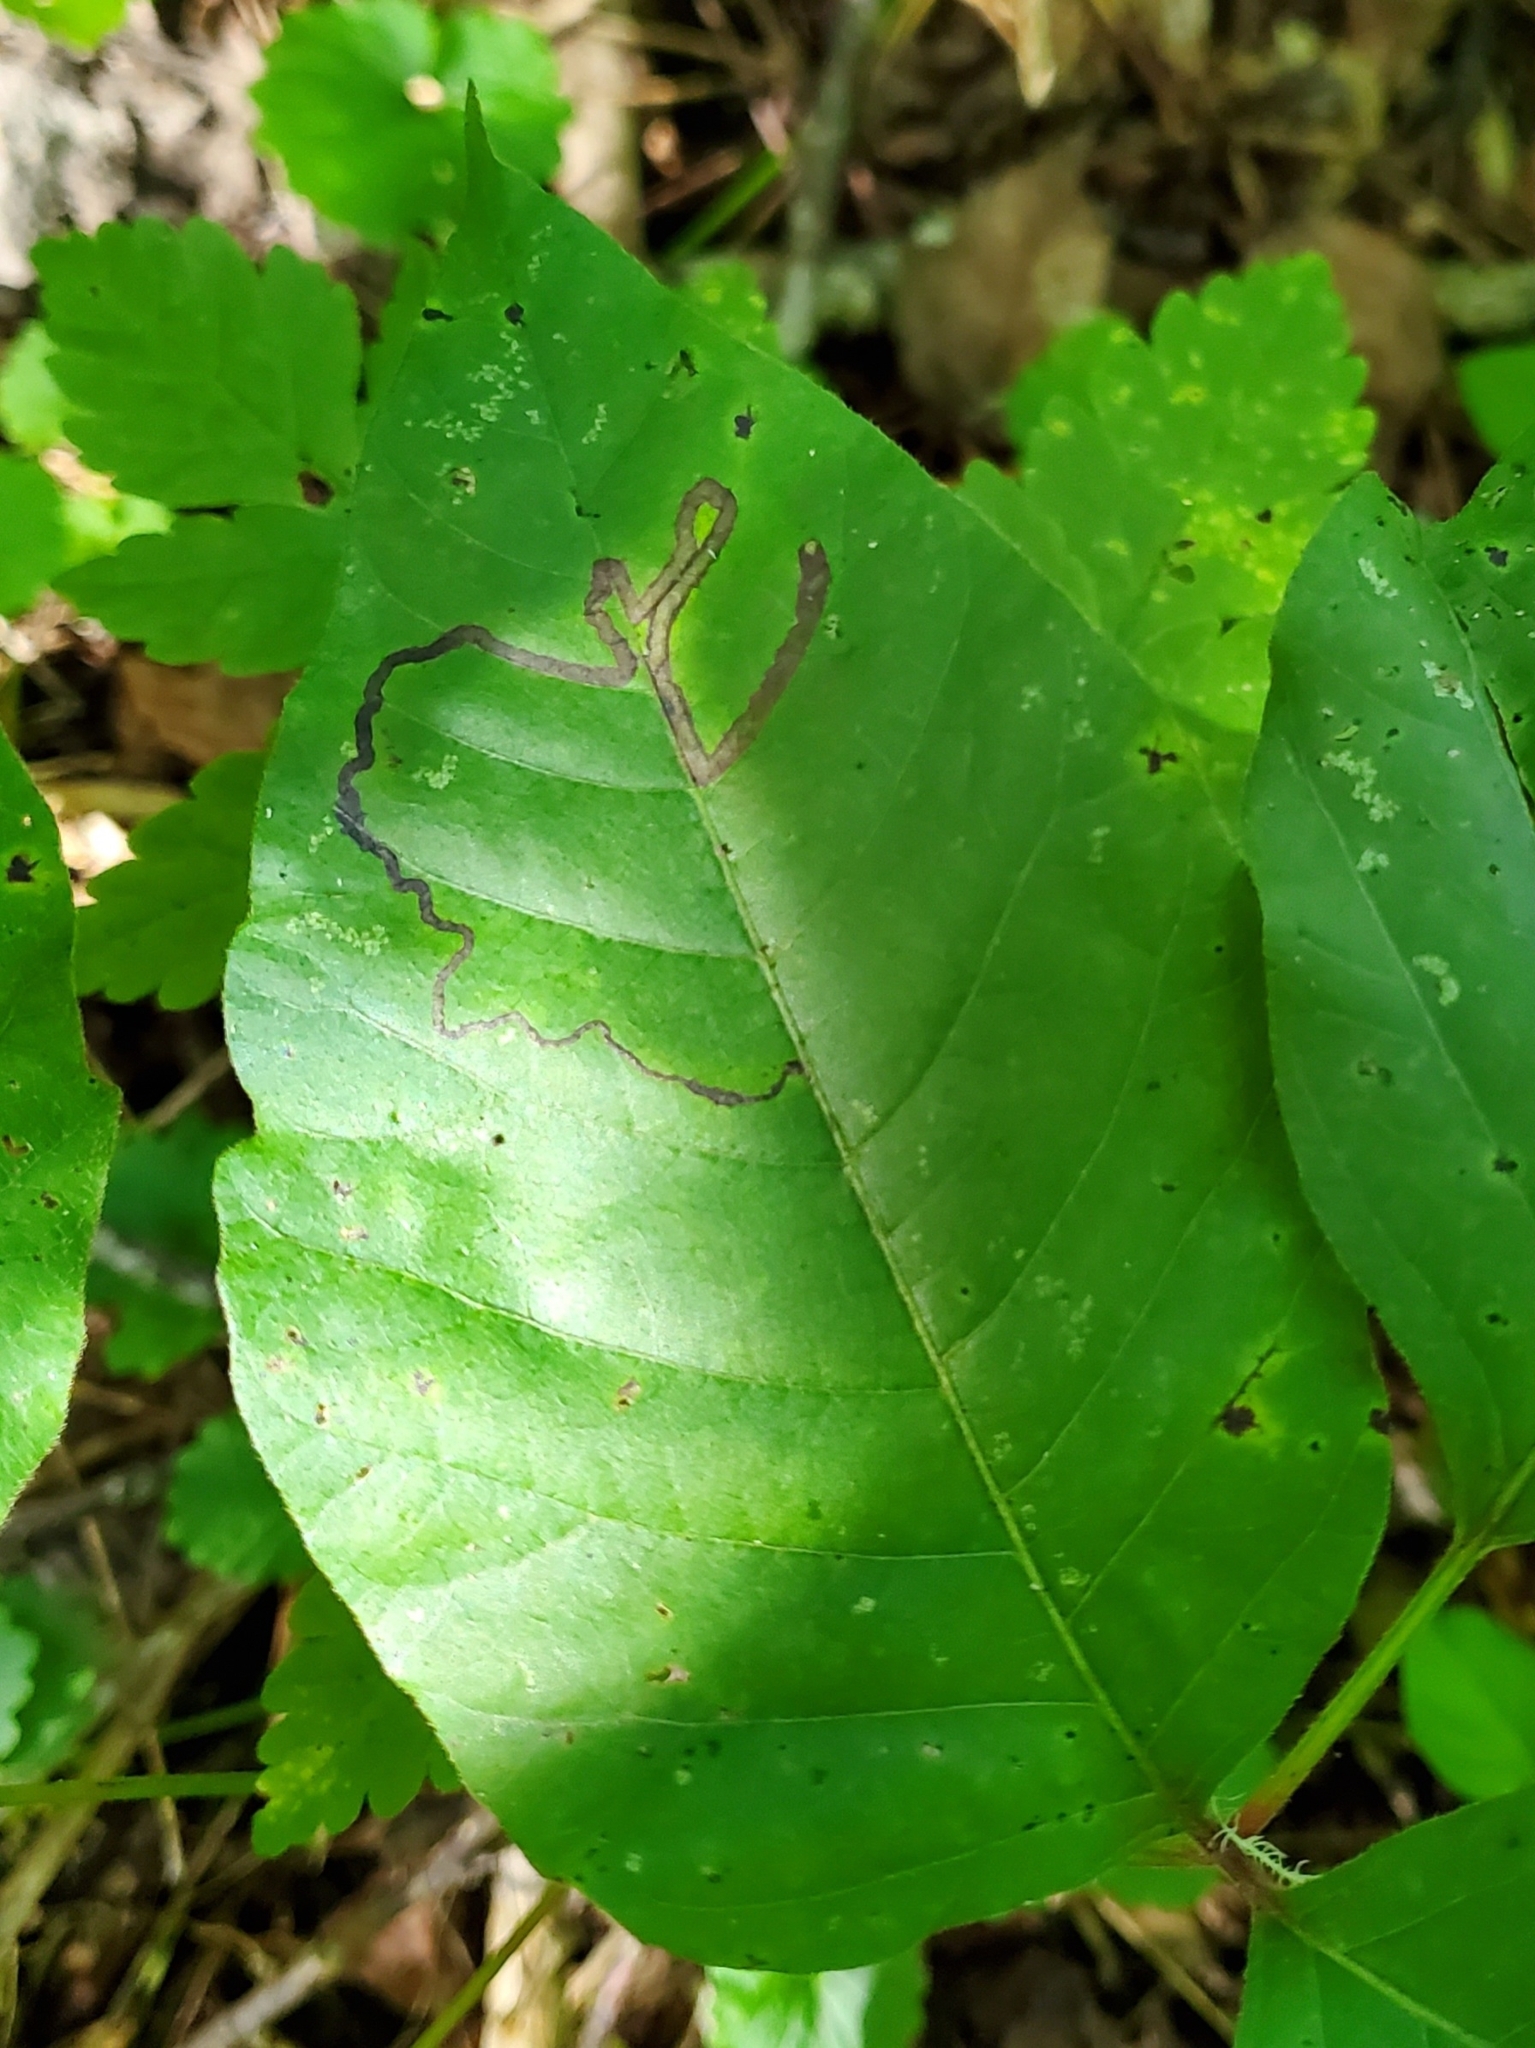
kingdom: Animalia
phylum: Arthropoda
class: Insecta
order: Lepidoptera
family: Nepticulidae
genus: Stigmella
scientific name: Stigmella rhoifoliella
